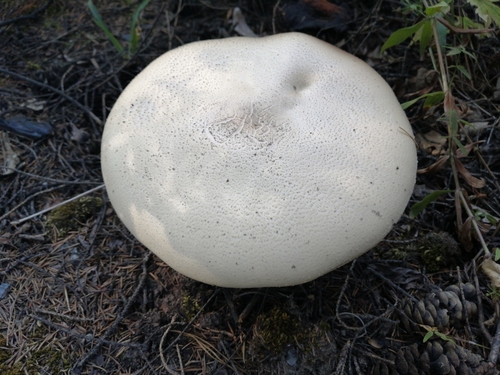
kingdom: Fungi
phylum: Basidiomycota
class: Agaricomycetes
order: Agaricales
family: Agaricaceae
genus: Agaricus
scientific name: Agaricus sylvicola
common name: Wood mushroom
